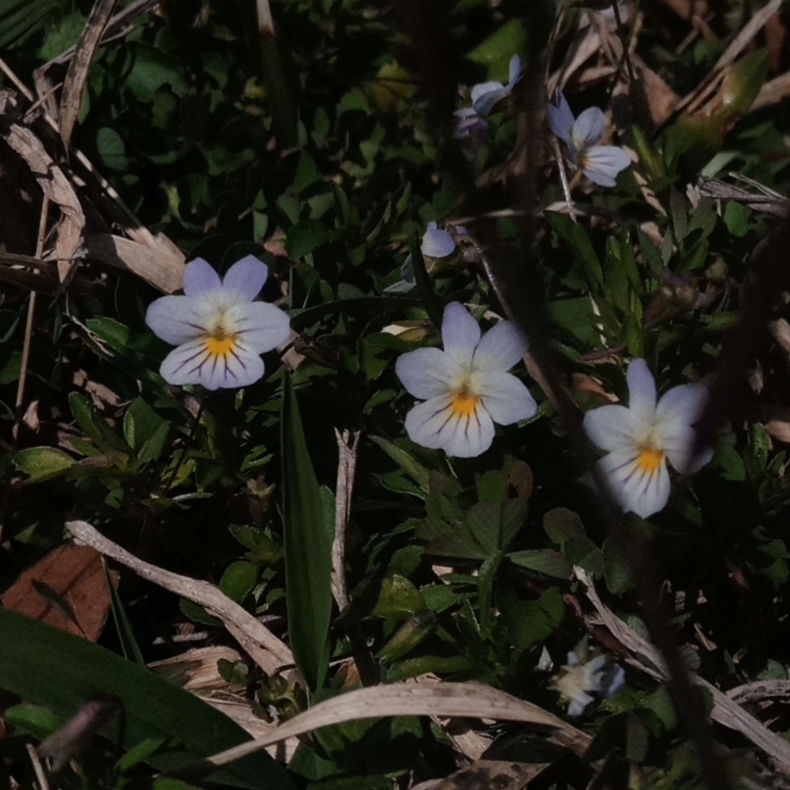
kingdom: Plantae
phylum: Tracheophyta
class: Magnoliopsida
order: Malpighiales
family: Violaceae
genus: Viola
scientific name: Viola rafinesquei
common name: American field pansy
